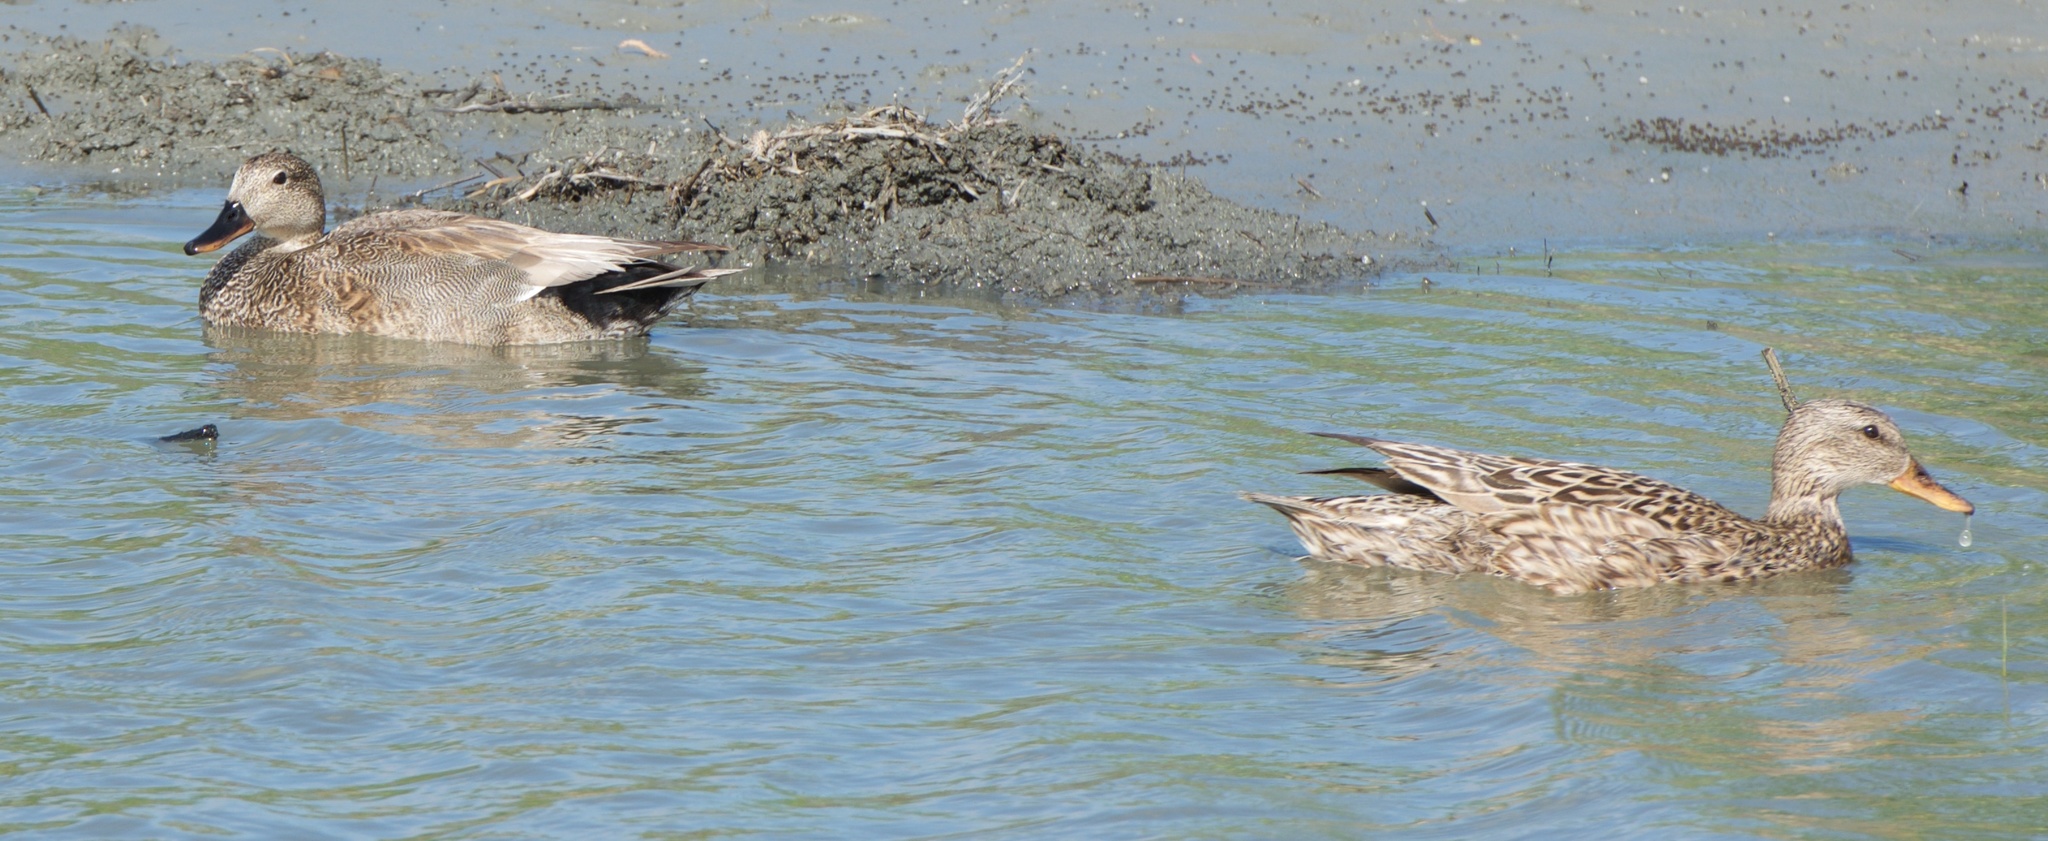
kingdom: Animalia
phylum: Chordata
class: Aves
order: Anseriformes
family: Anatidae
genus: Mareca
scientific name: Mareca strepera
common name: Gadwall
